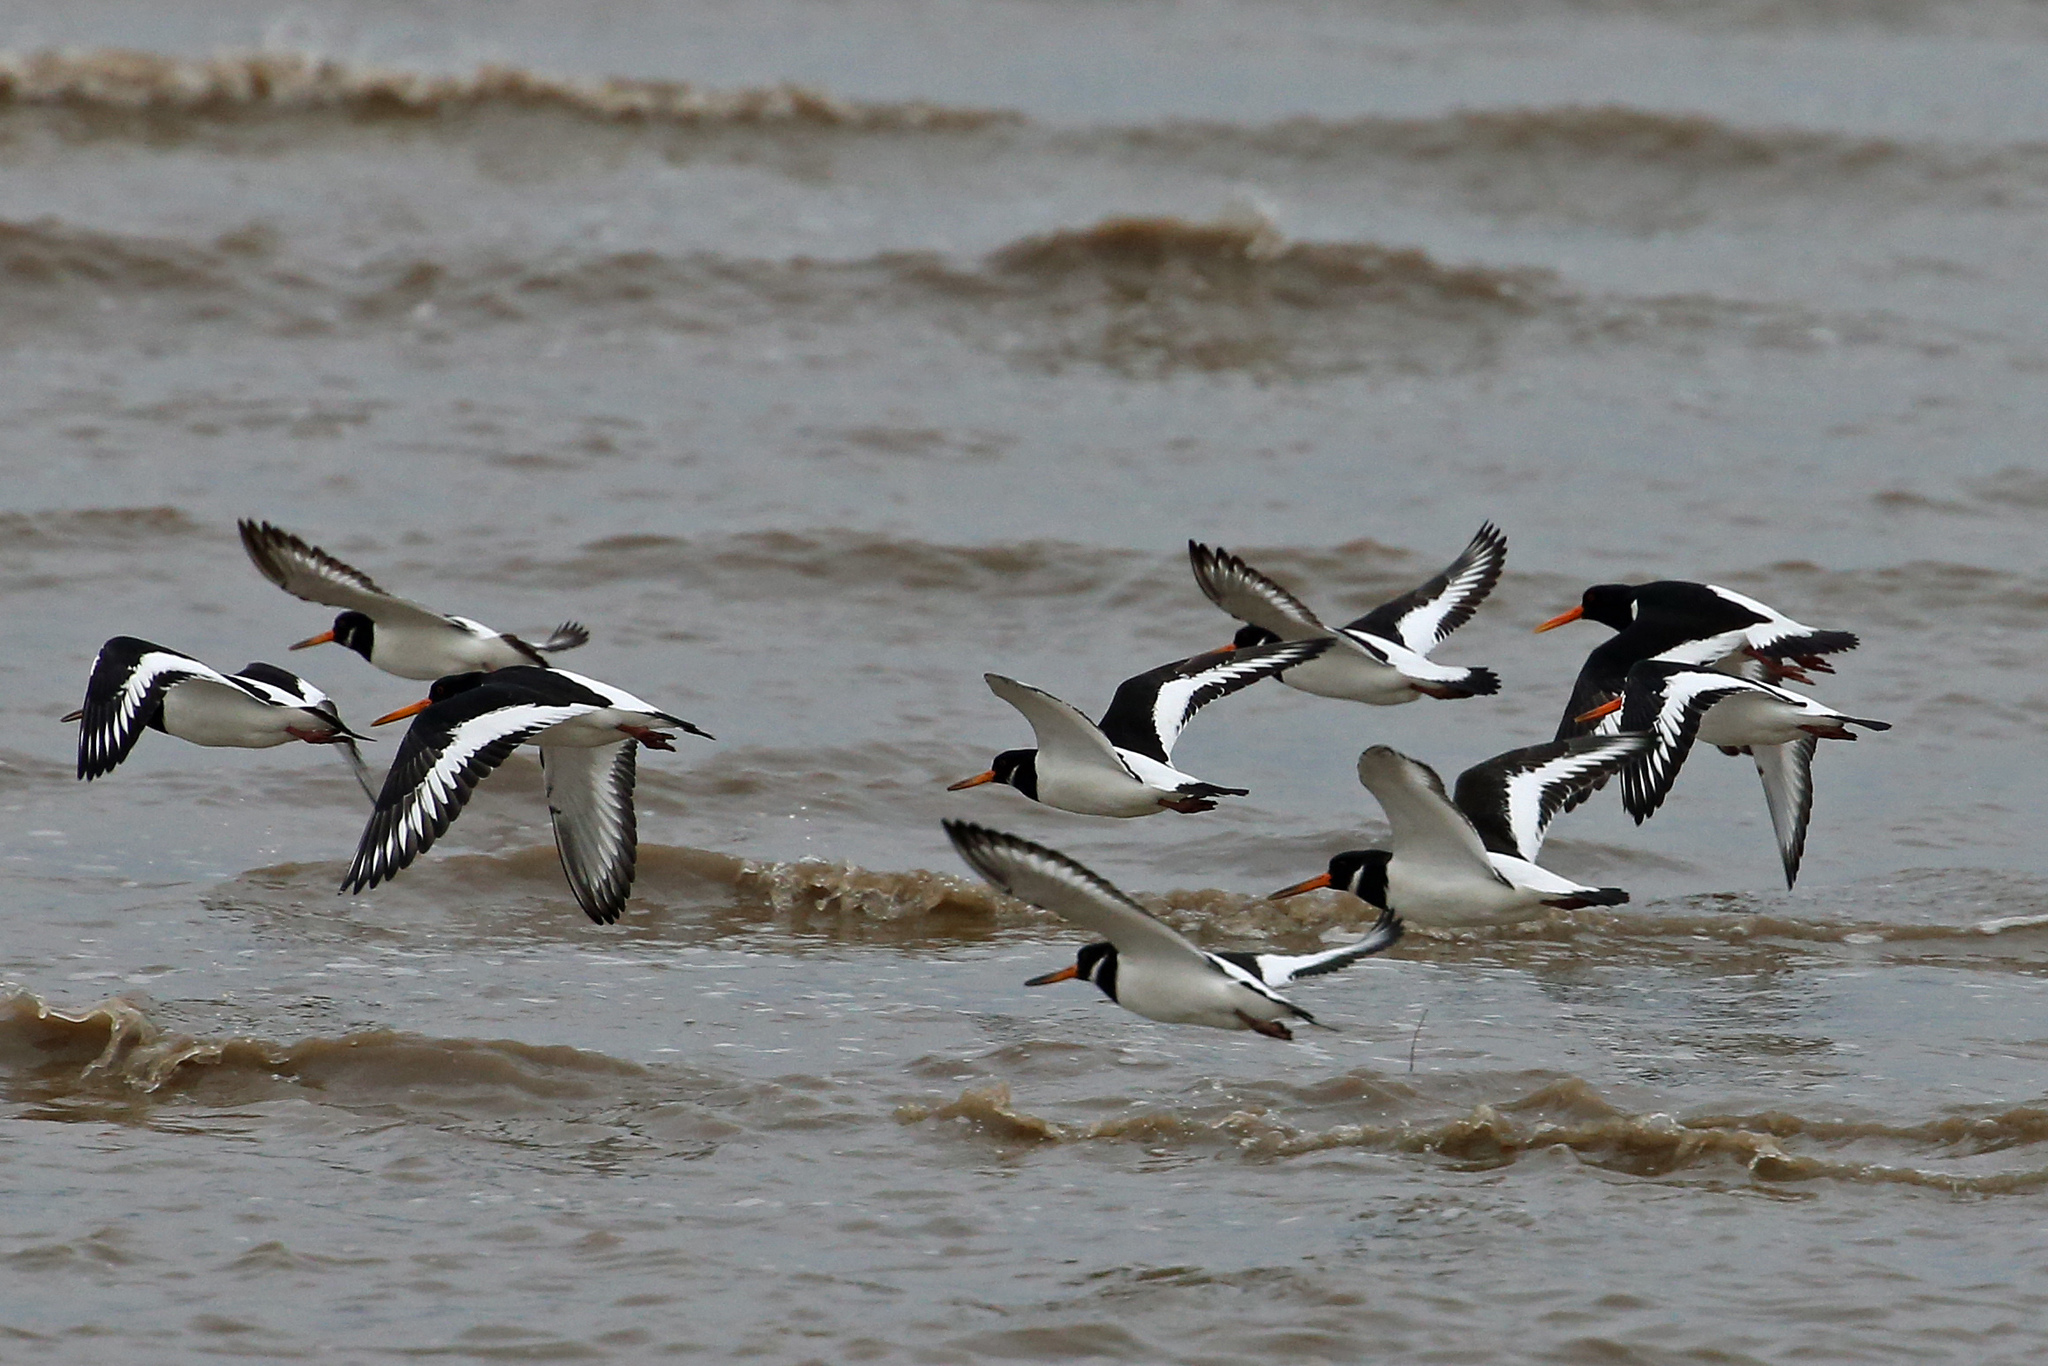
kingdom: Animalia
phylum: Chordata
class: Aves
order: Charadriiformes
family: Haematopodidae
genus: Haematopus
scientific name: Haematopus ostralegus
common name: Eurasian oystercatcher
